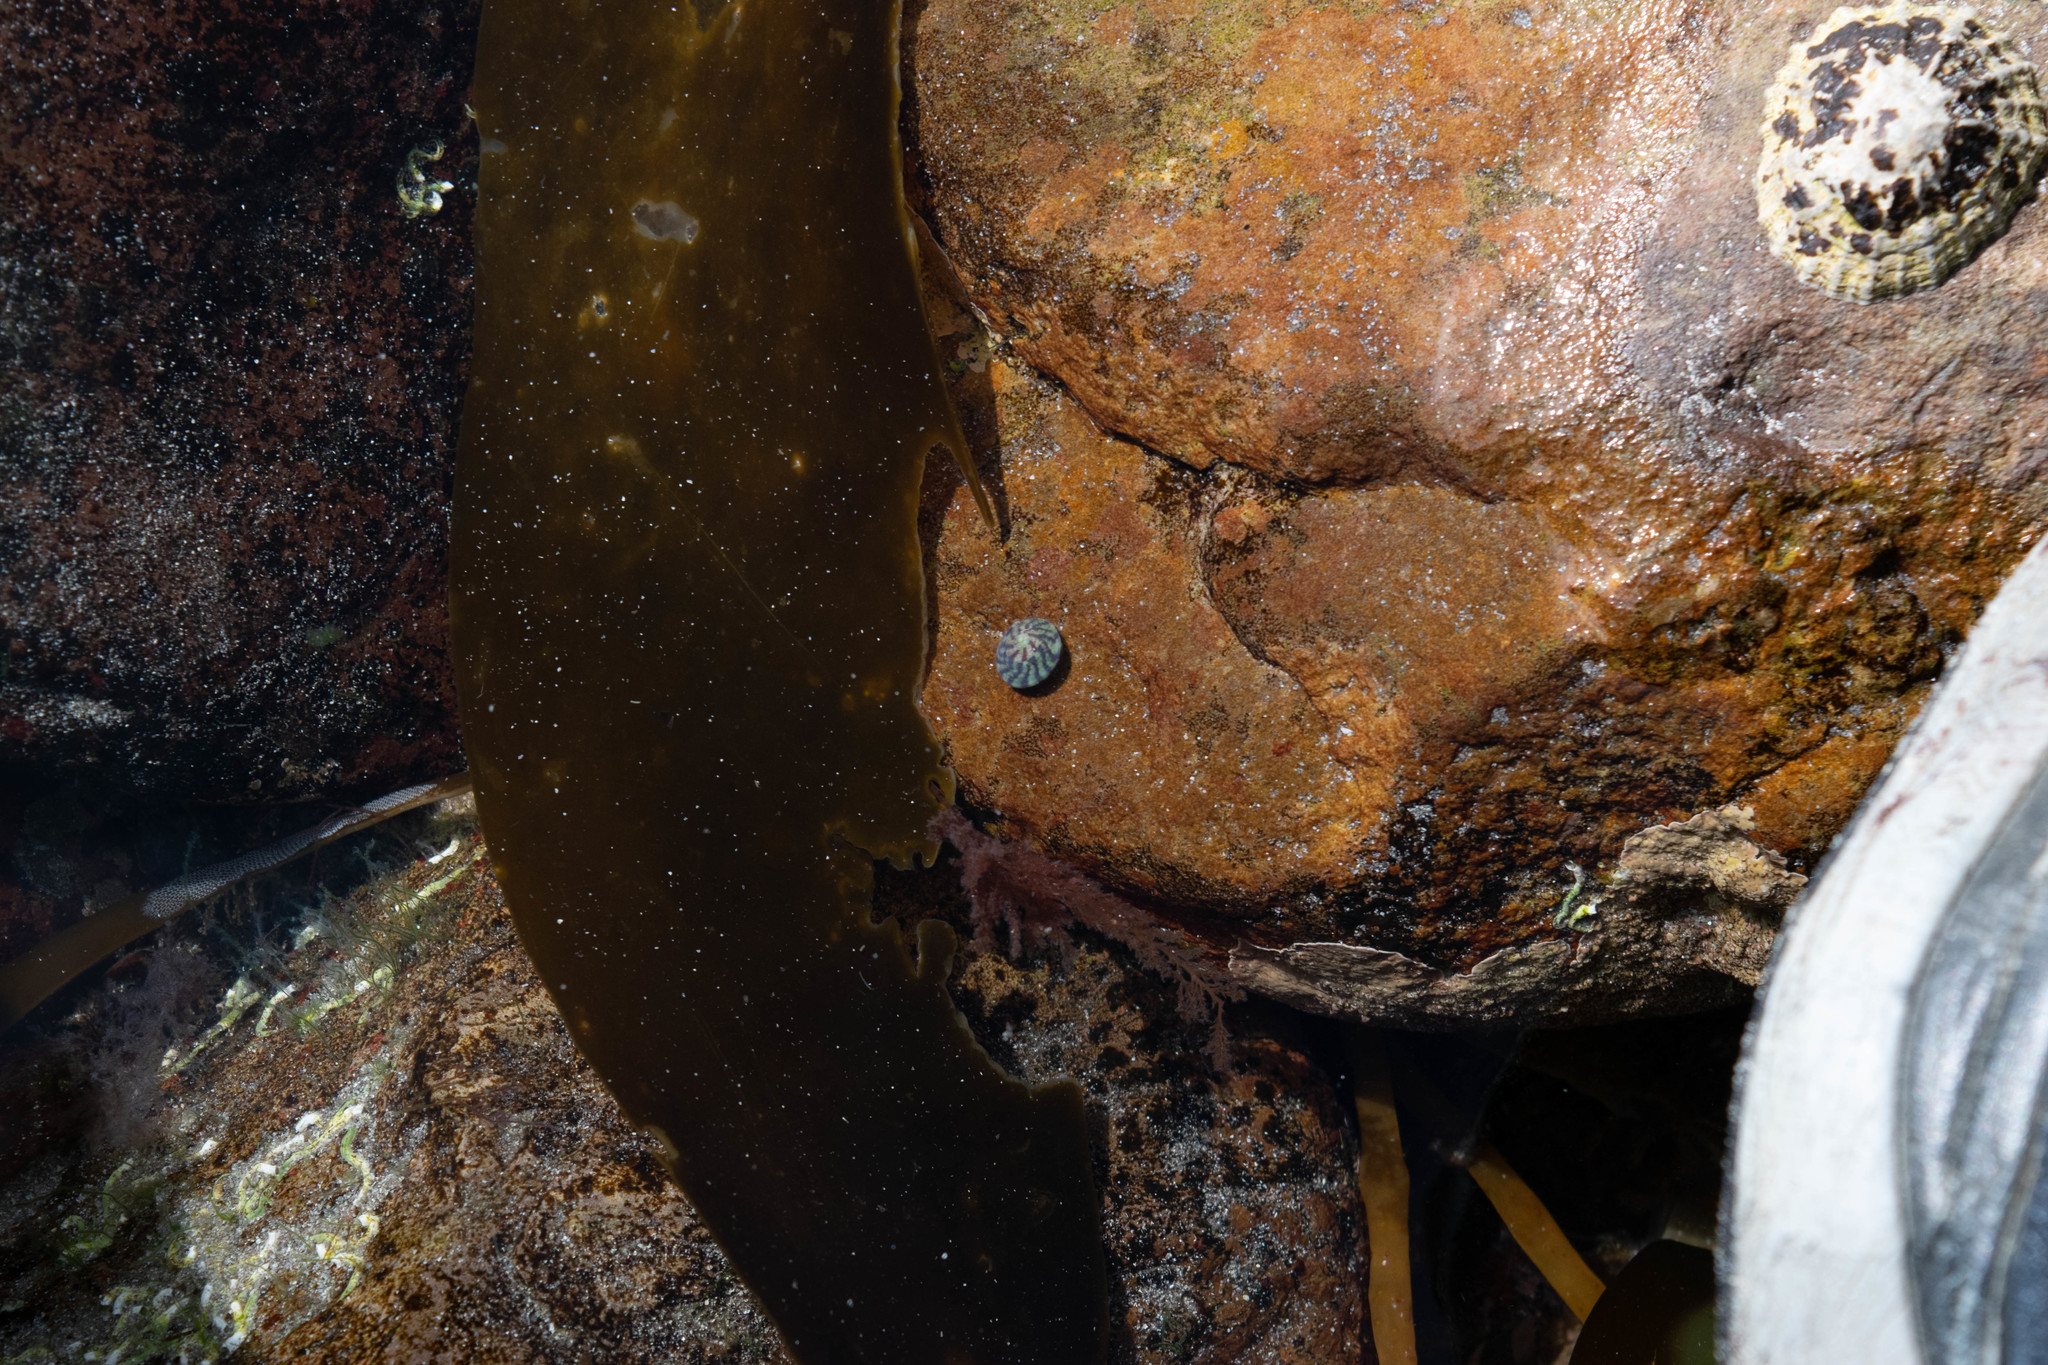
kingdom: Animalia
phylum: Mollusca
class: Gastropoda
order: Trochida
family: Trochidae
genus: Steromphala
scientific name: Steromphala umbilicalis
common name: Flat top shell
